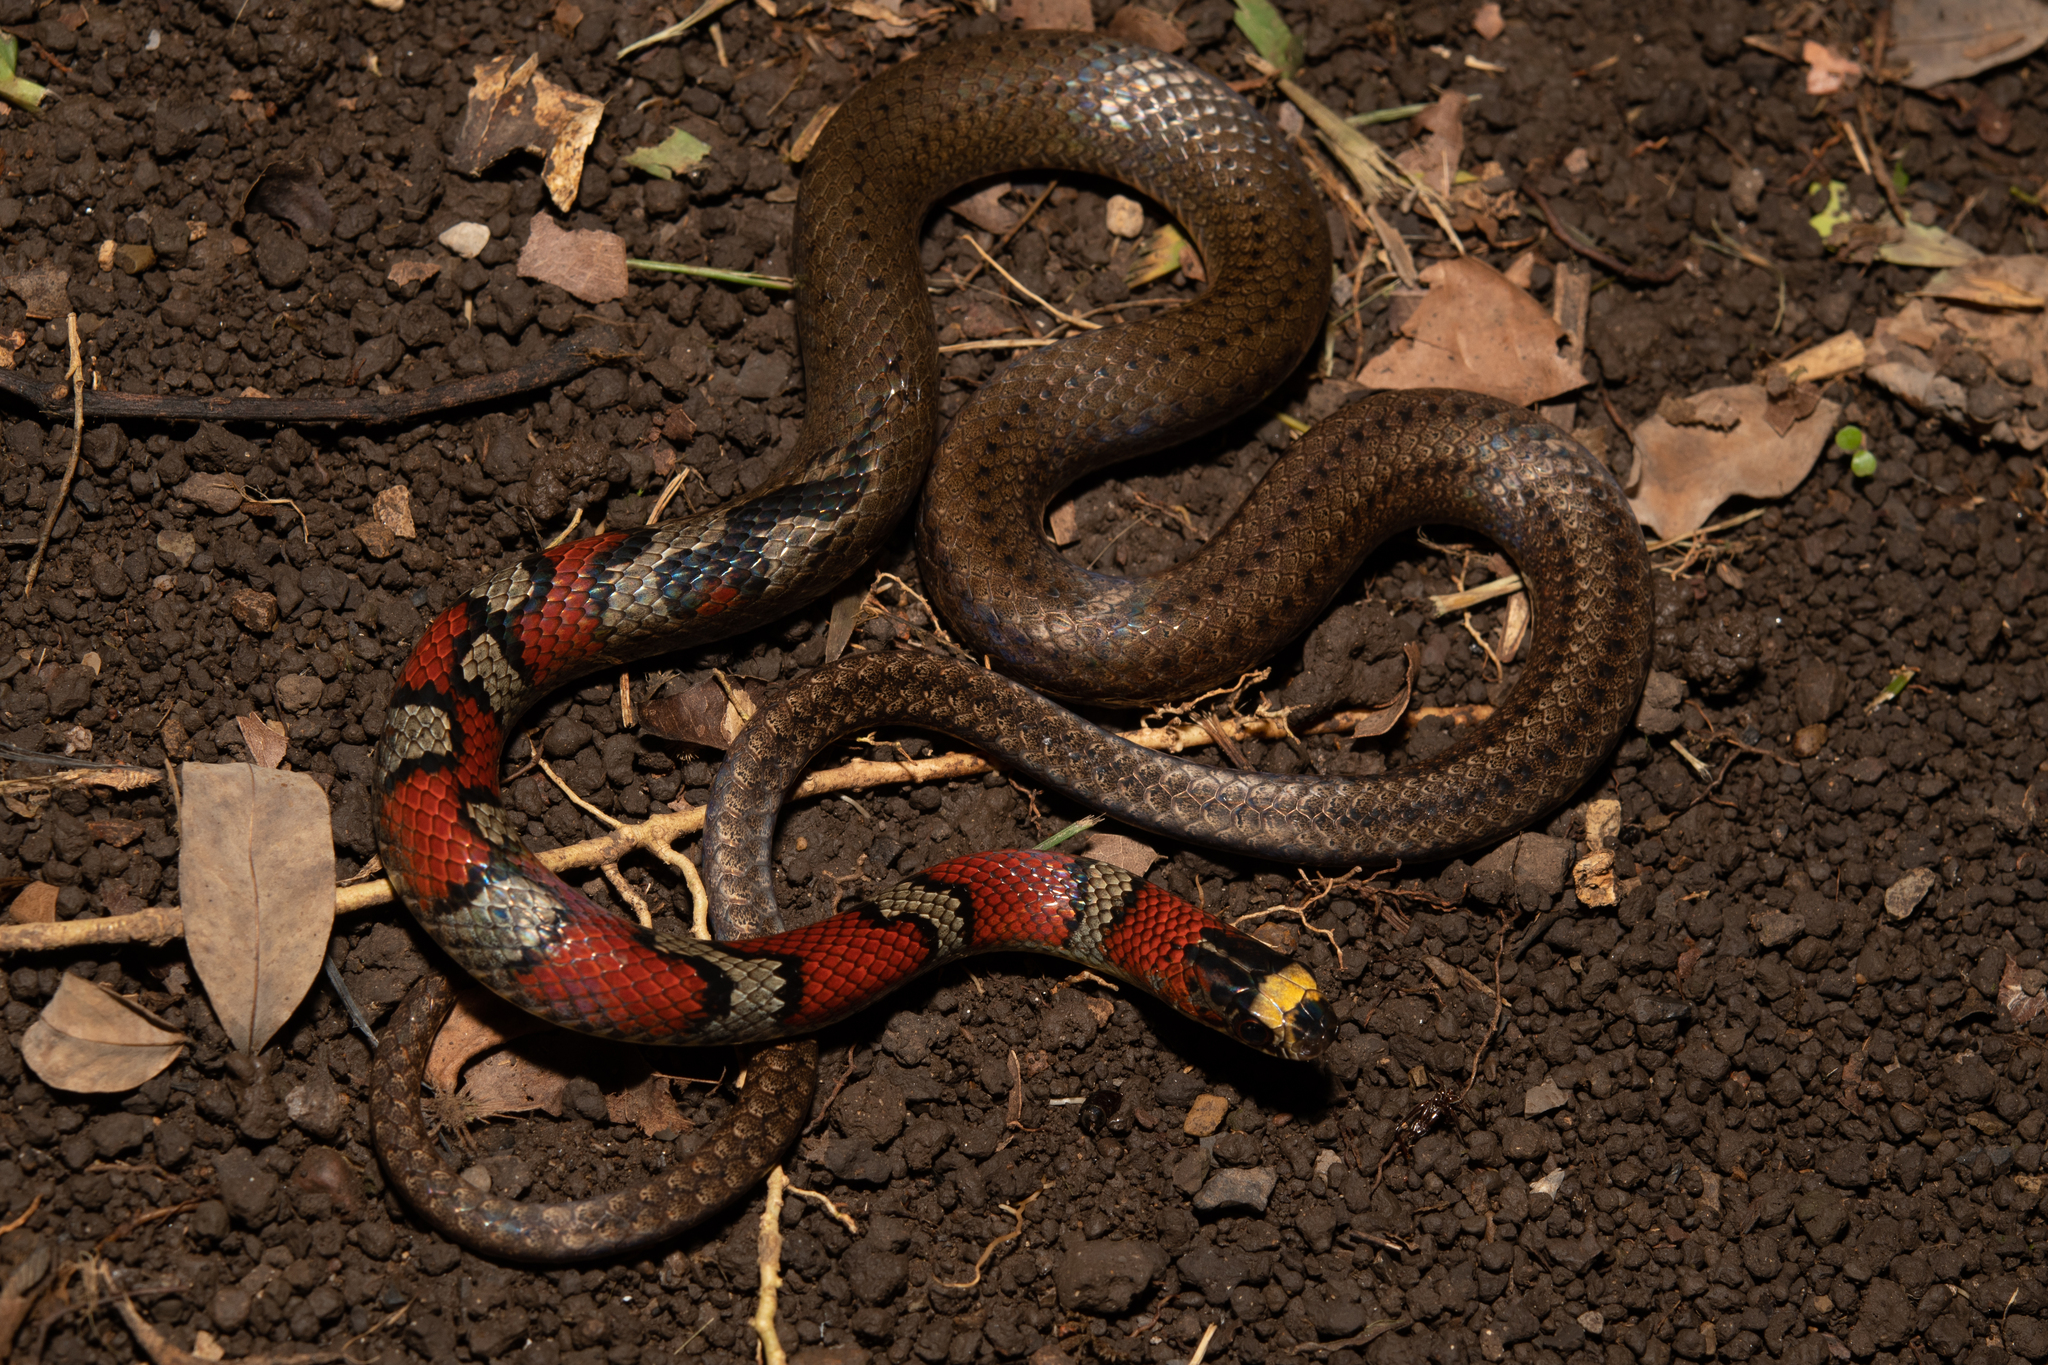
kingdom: Animalia
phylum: Chordata
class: Squamata
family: Colubridae
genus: Scaphiodontophis
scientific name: Scaphiodontophis annulatus
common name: Guatemala neckband snake
